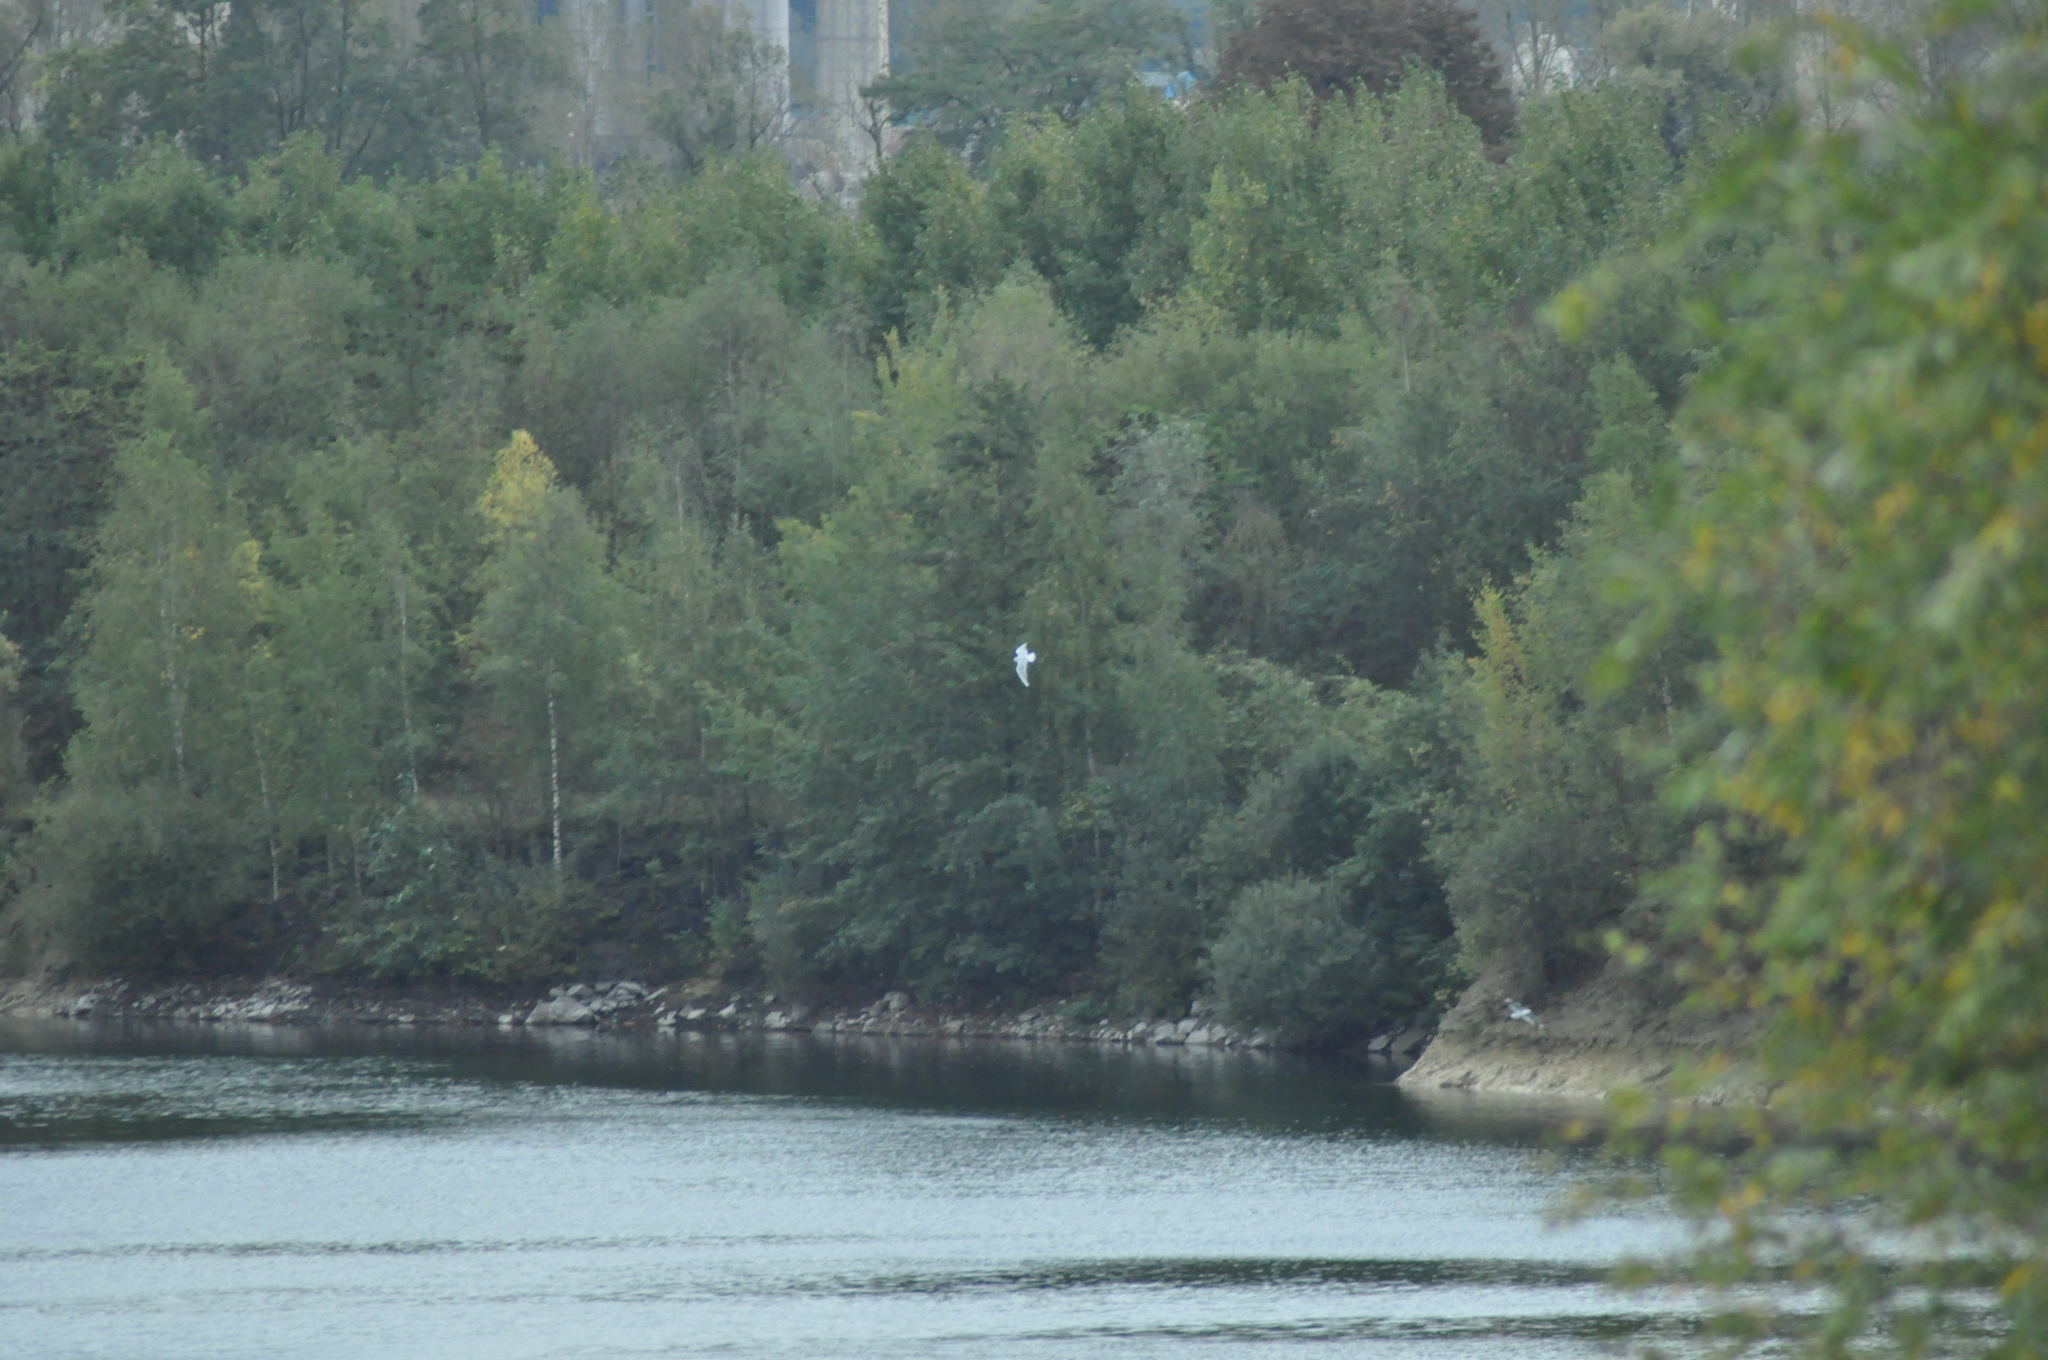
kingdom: Animalia
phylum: Chordata
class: Aves
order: Charadriiformes
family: Laridae
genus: Chroicocephalus
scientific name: Chroicocephalus ridibundus
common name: Black-headed gull
